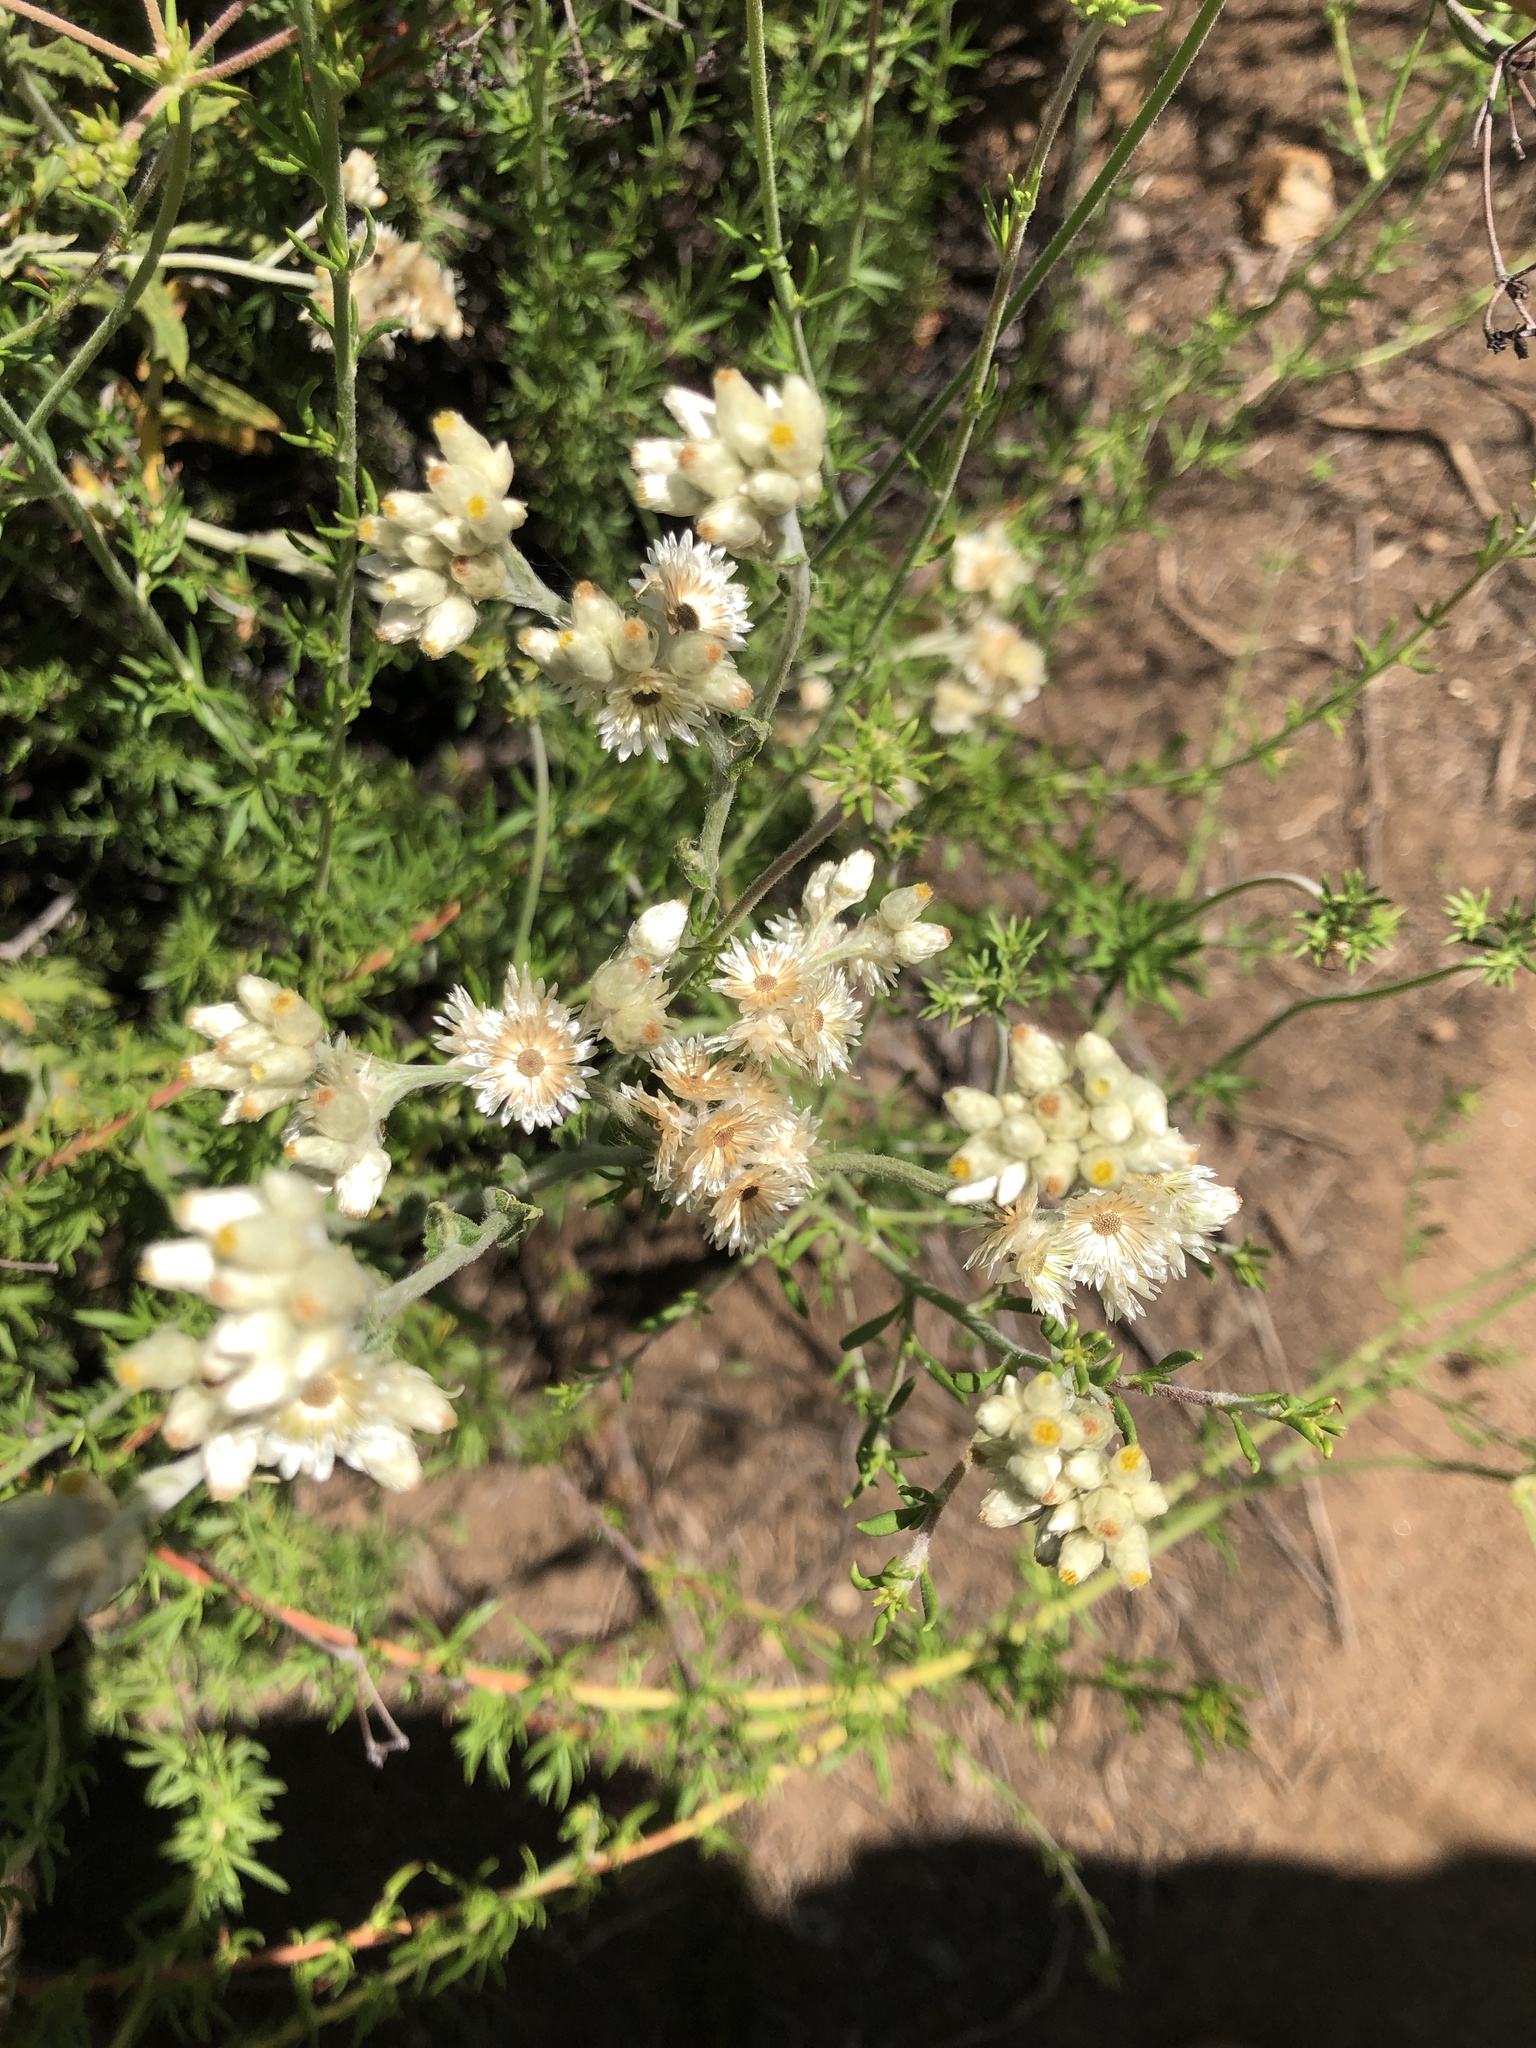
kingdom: Plantae
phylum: Tracheophyta
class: Magnoliopsida
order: Asterales
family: Asteraceae
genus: Pseudognaphalium
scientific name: Pseudognaphalium biolettii
